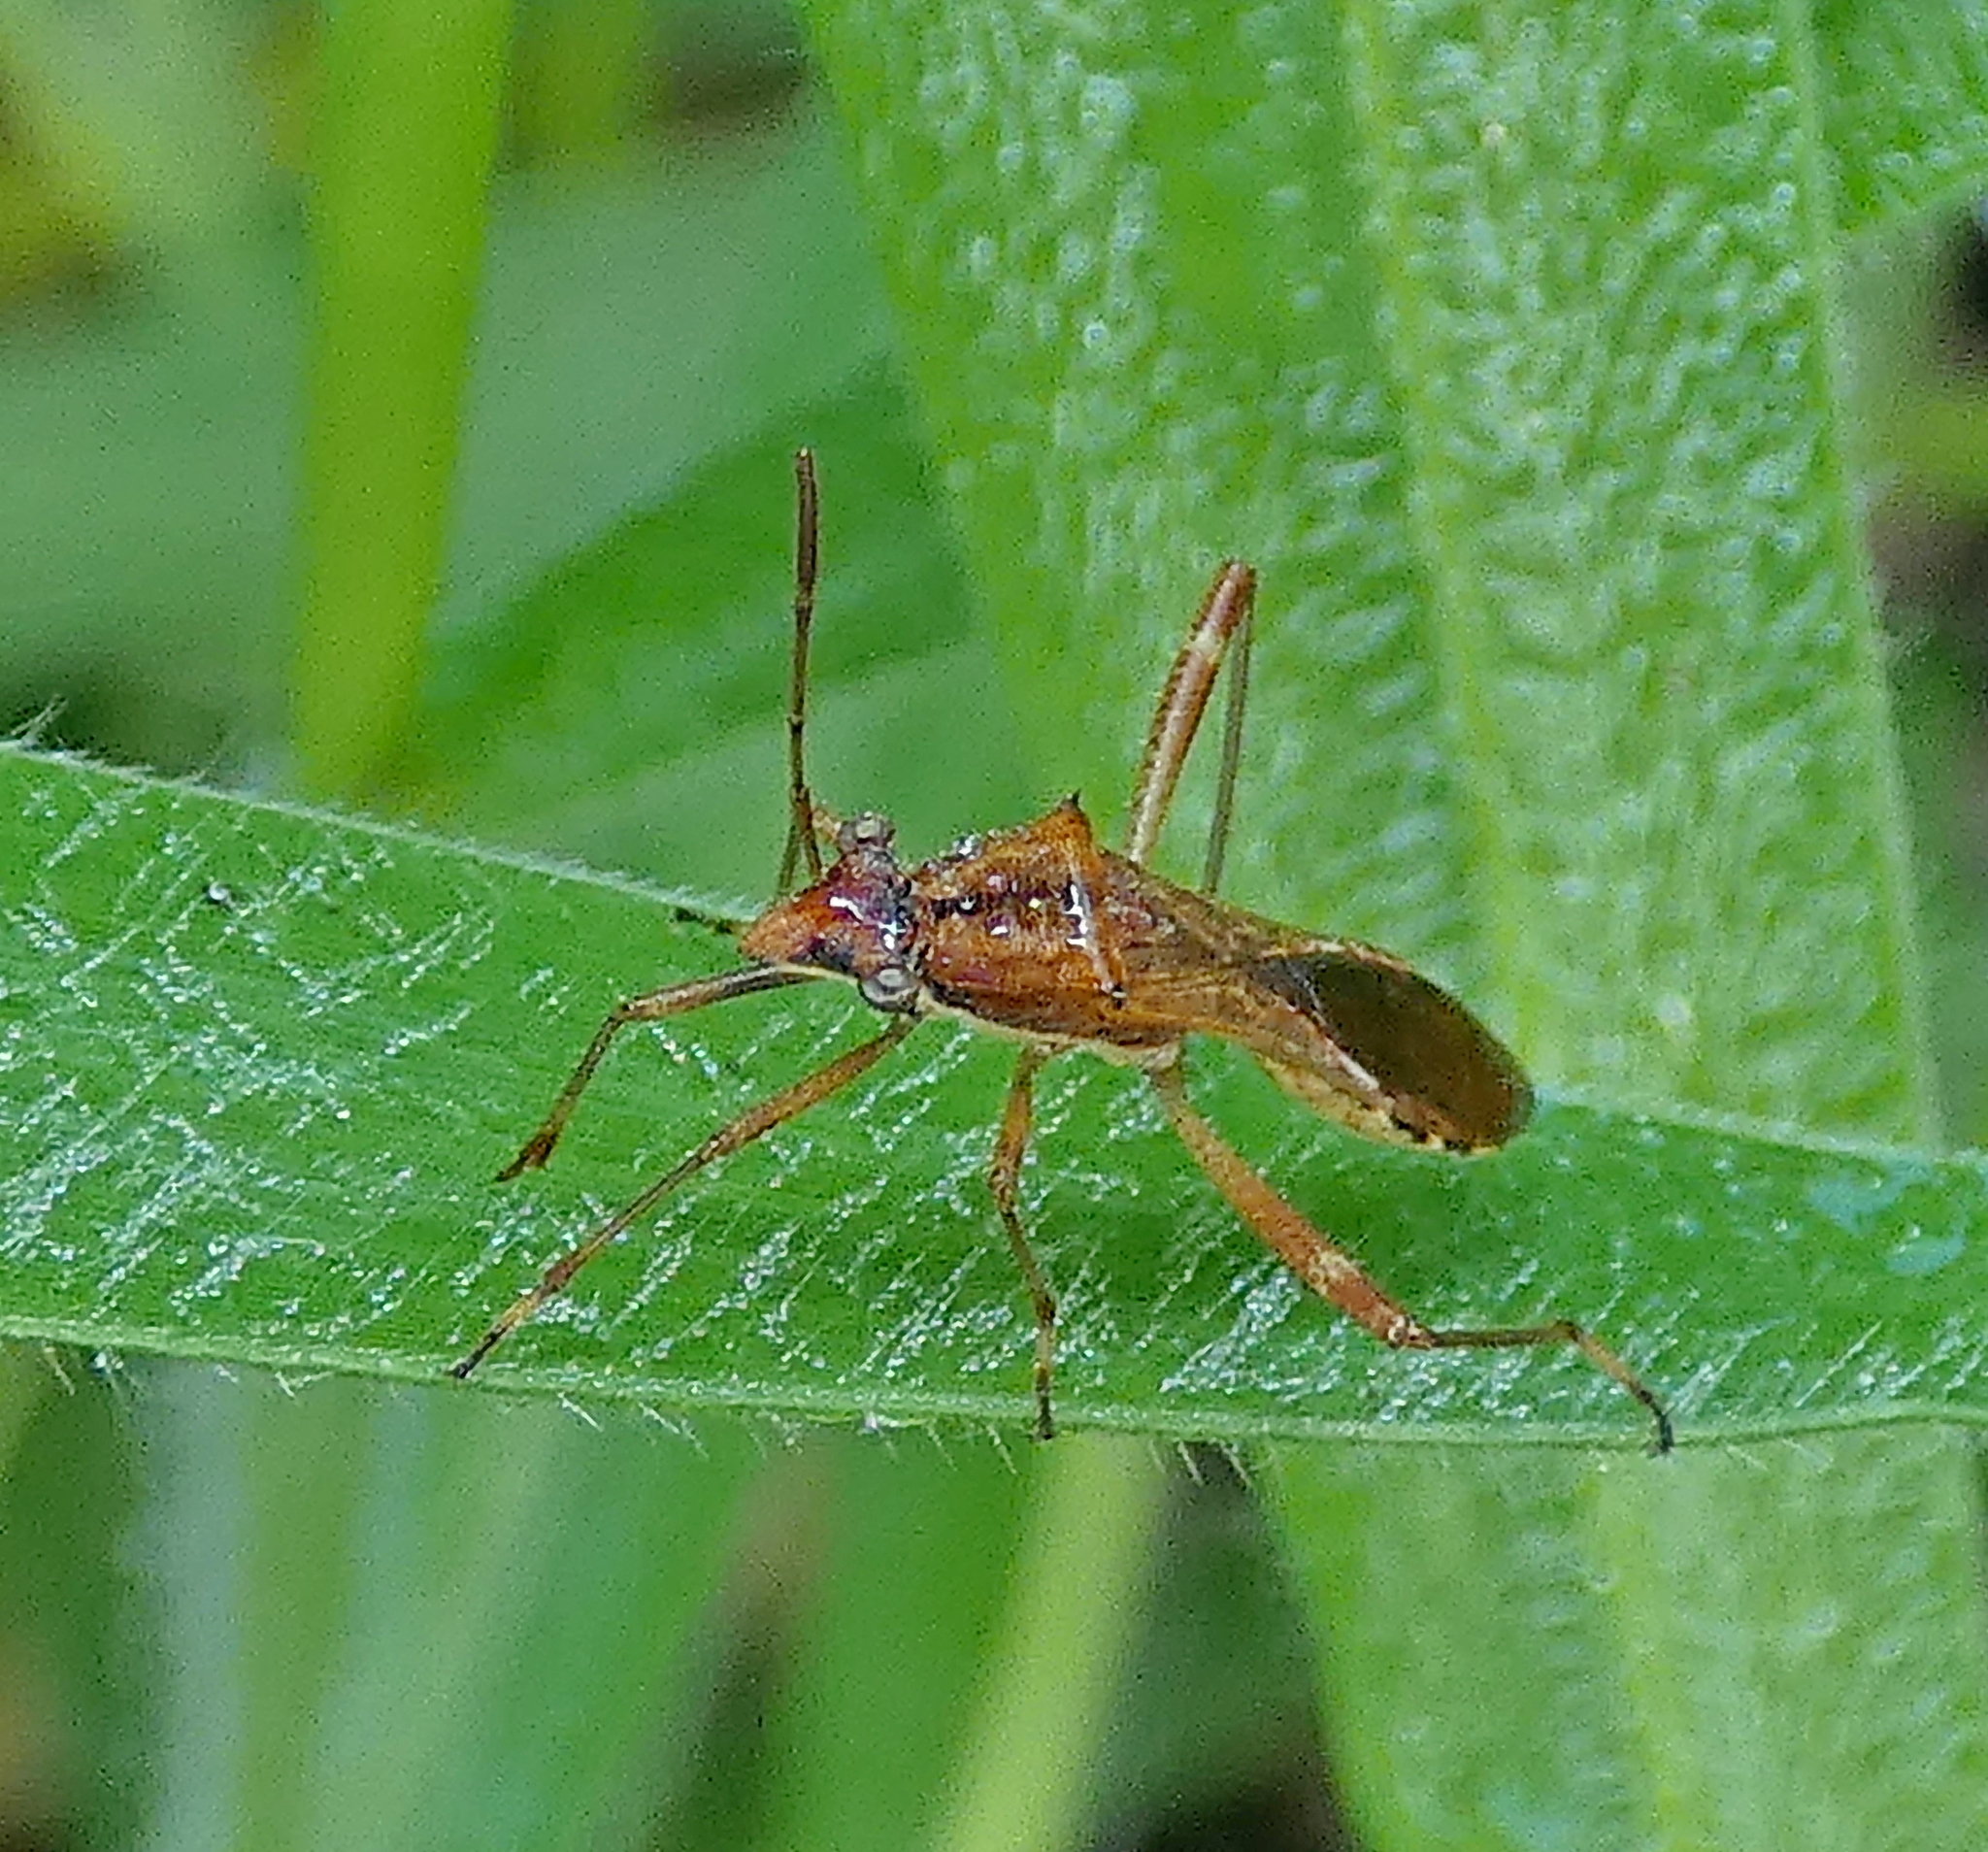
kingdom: Animalia
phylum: Arthropoda
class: Insecta
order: Hemiptera
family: Alydidae
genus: Neomegalotomus
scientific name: Neomegalotomus parvus
